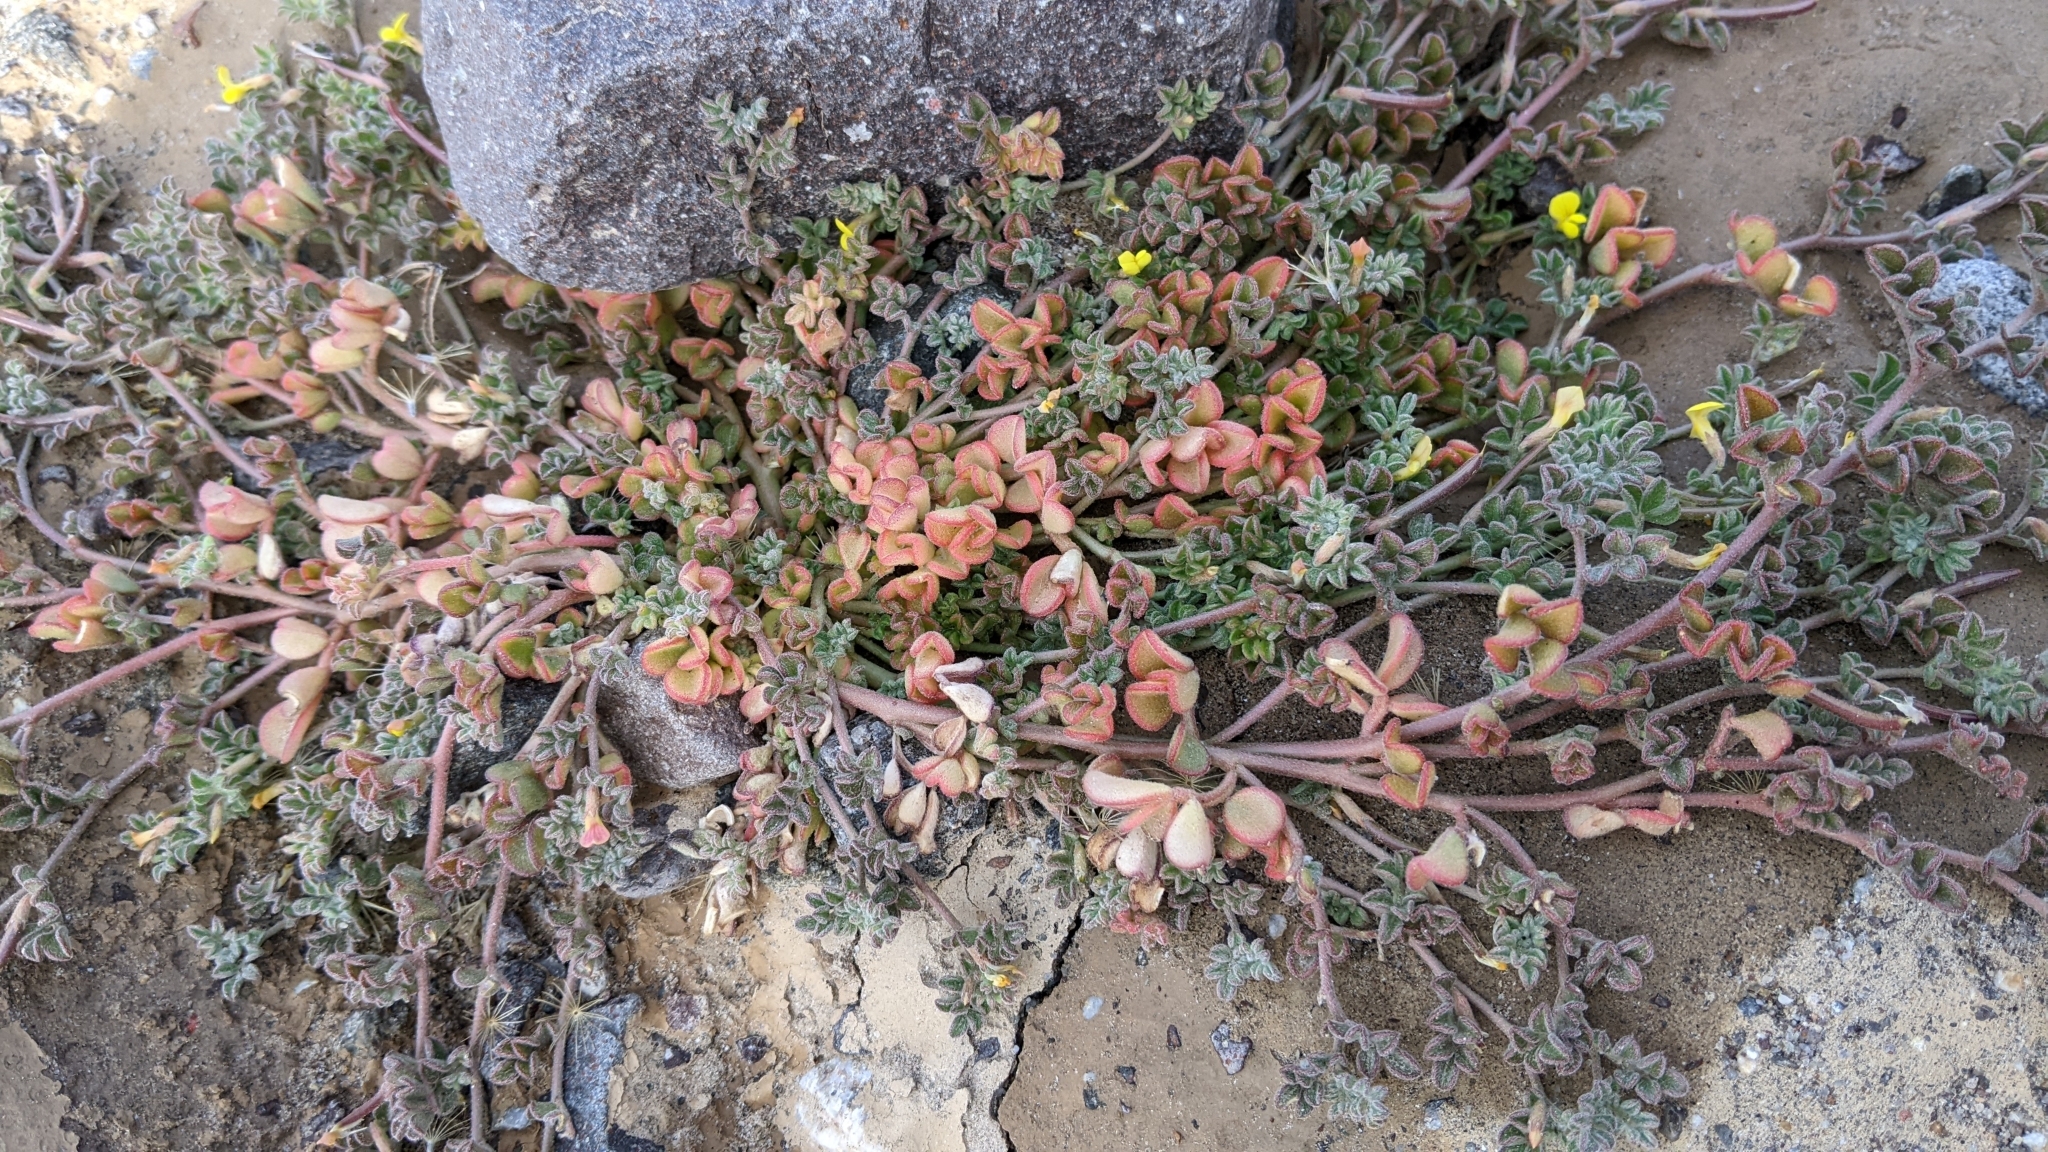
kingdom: Plantae
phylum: Tracheophyta
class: Magnoliopsida
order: Fabales
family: Fabaceae
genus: Acmispon
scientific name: Acmispon strigosus
